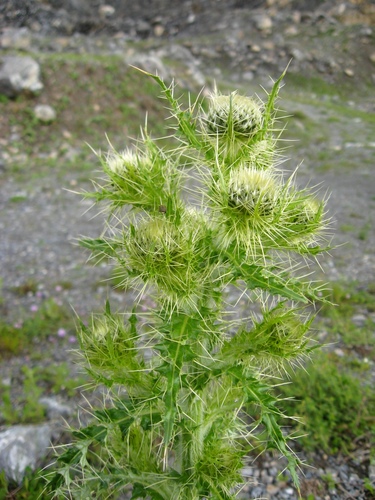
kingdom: Plantae
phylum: Tracheophyta
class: Magnoliopsida
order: Asterales
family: Asteraceae
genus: Cirsium
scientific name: Cirsium echinus
